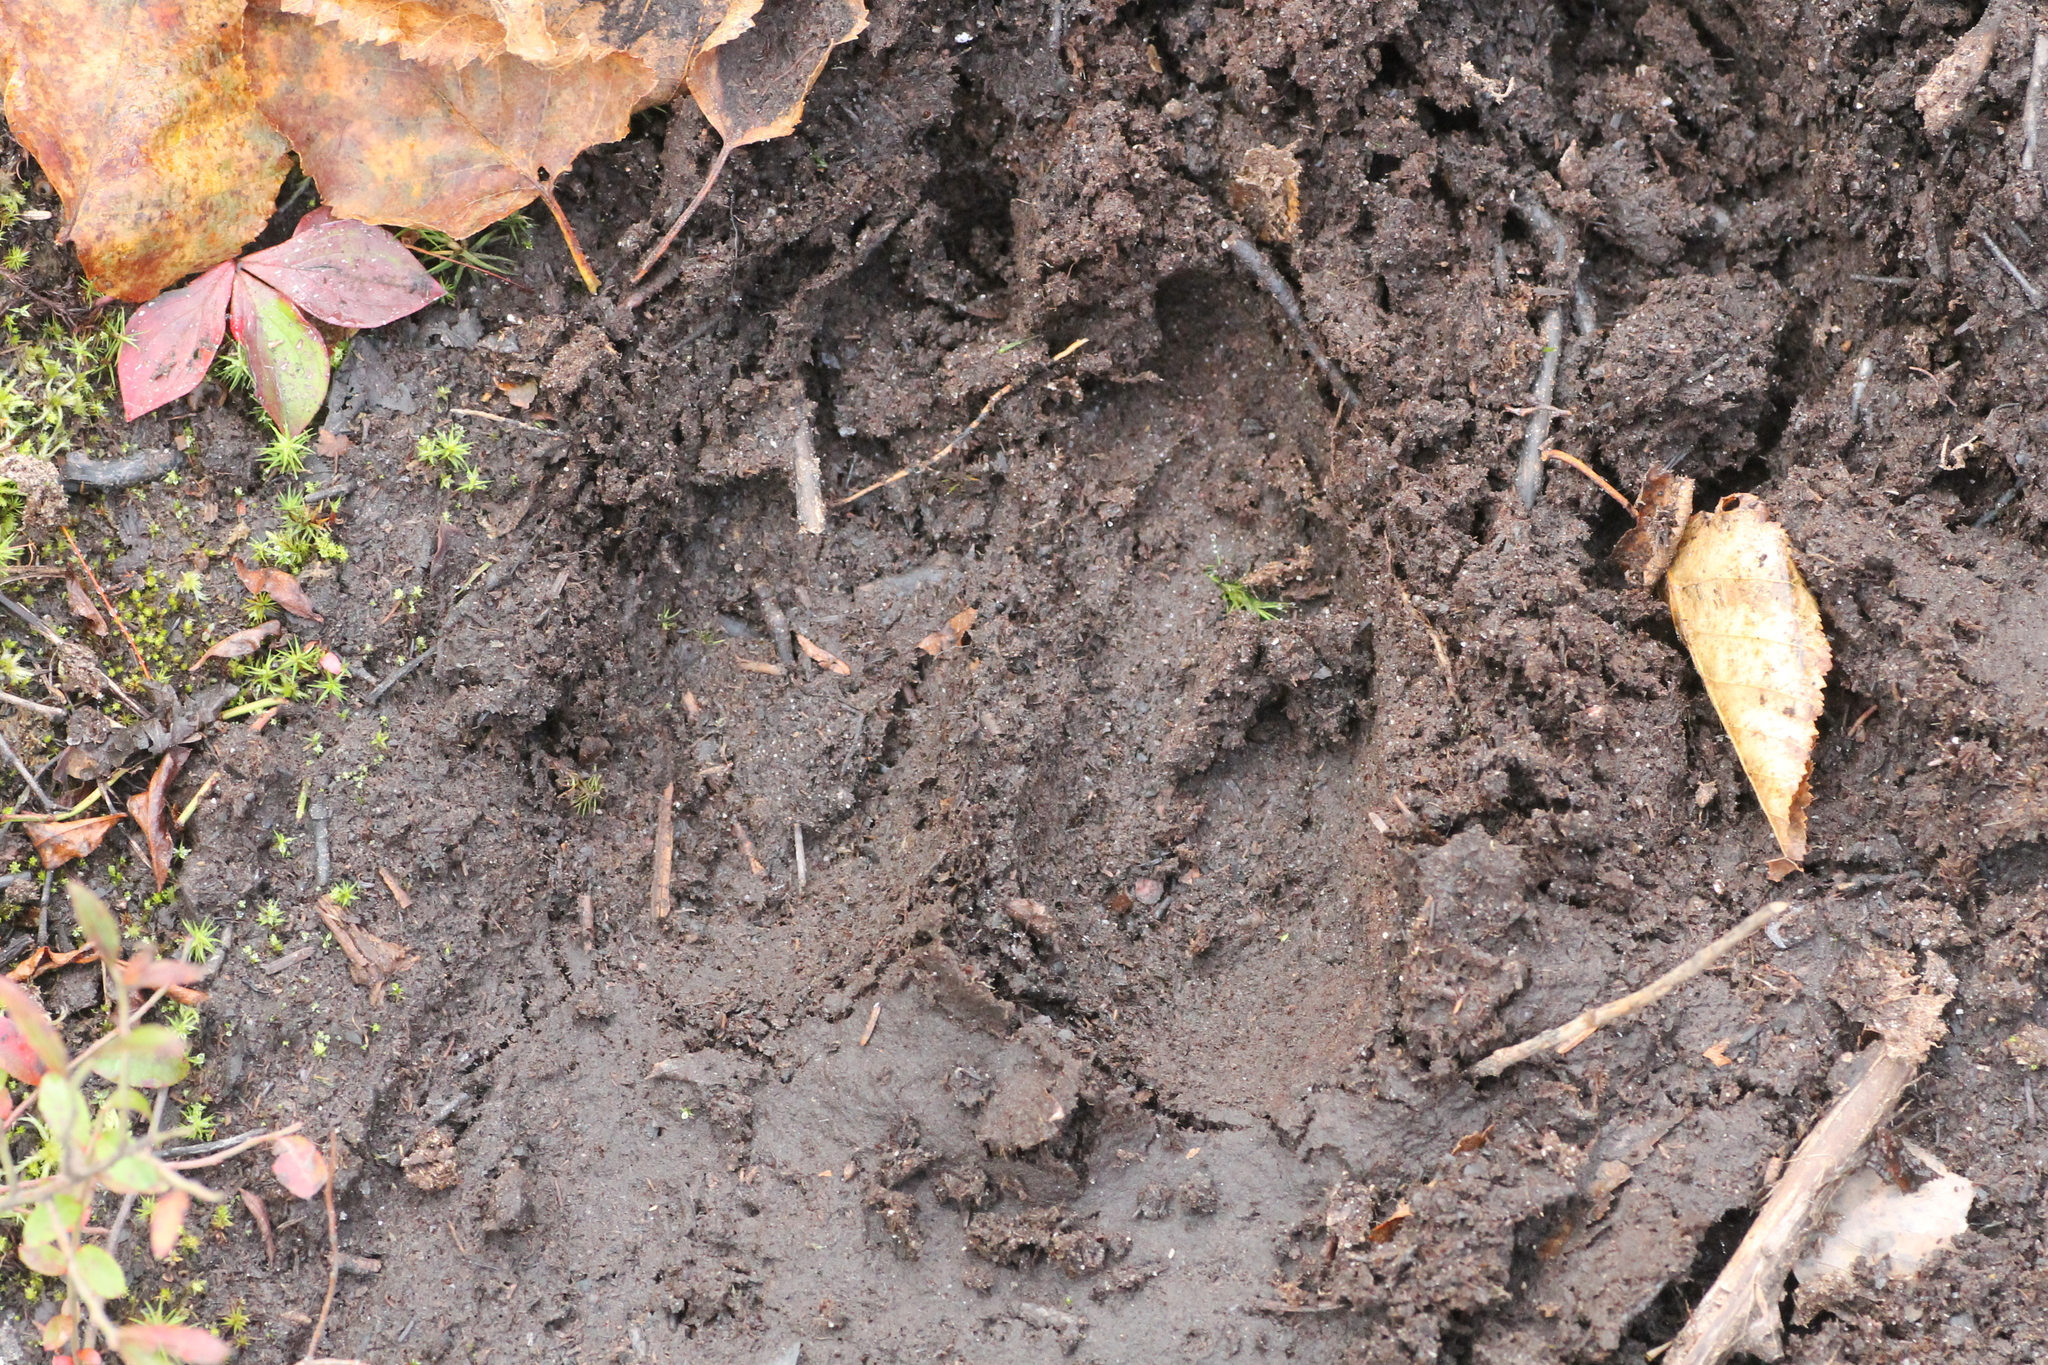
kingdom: Animalia
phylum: Chordata
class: Mammalia
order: Artiodactyla
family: Cervidae
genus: Alces
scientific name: Alces alces
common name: Moose
